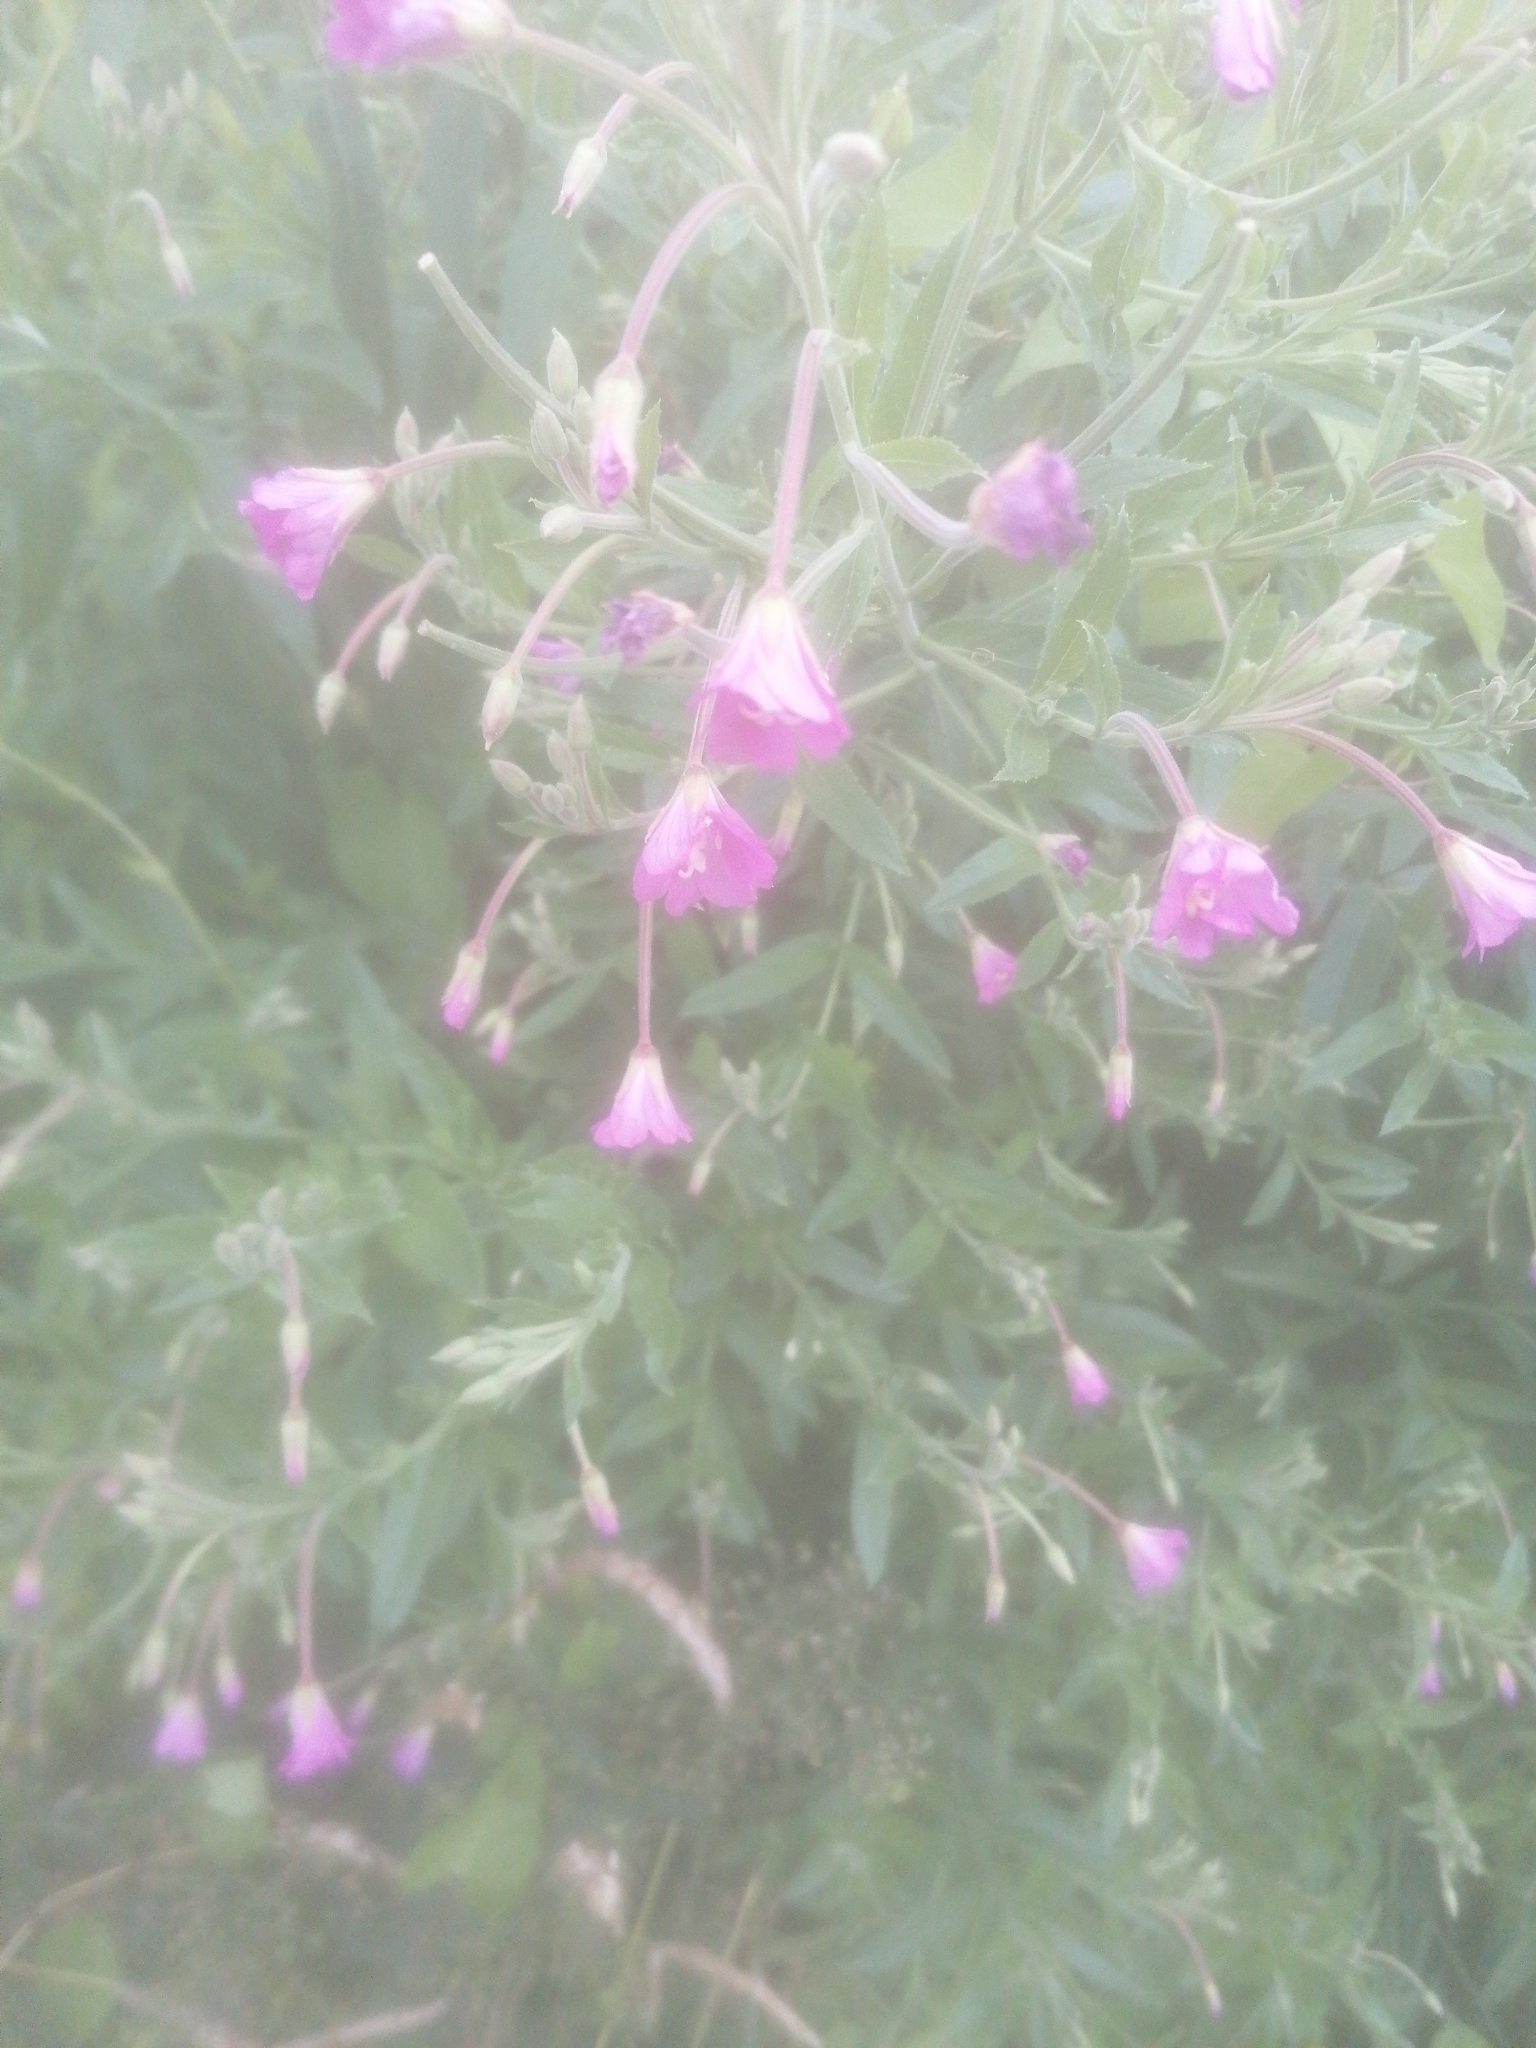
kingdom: Plantae
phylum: Tracheophyta
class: Magnoliopsida
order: Myrtales
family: Onagraceae
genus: Epilobium
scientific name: Epilobium hirsutum
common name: Great willowherb
